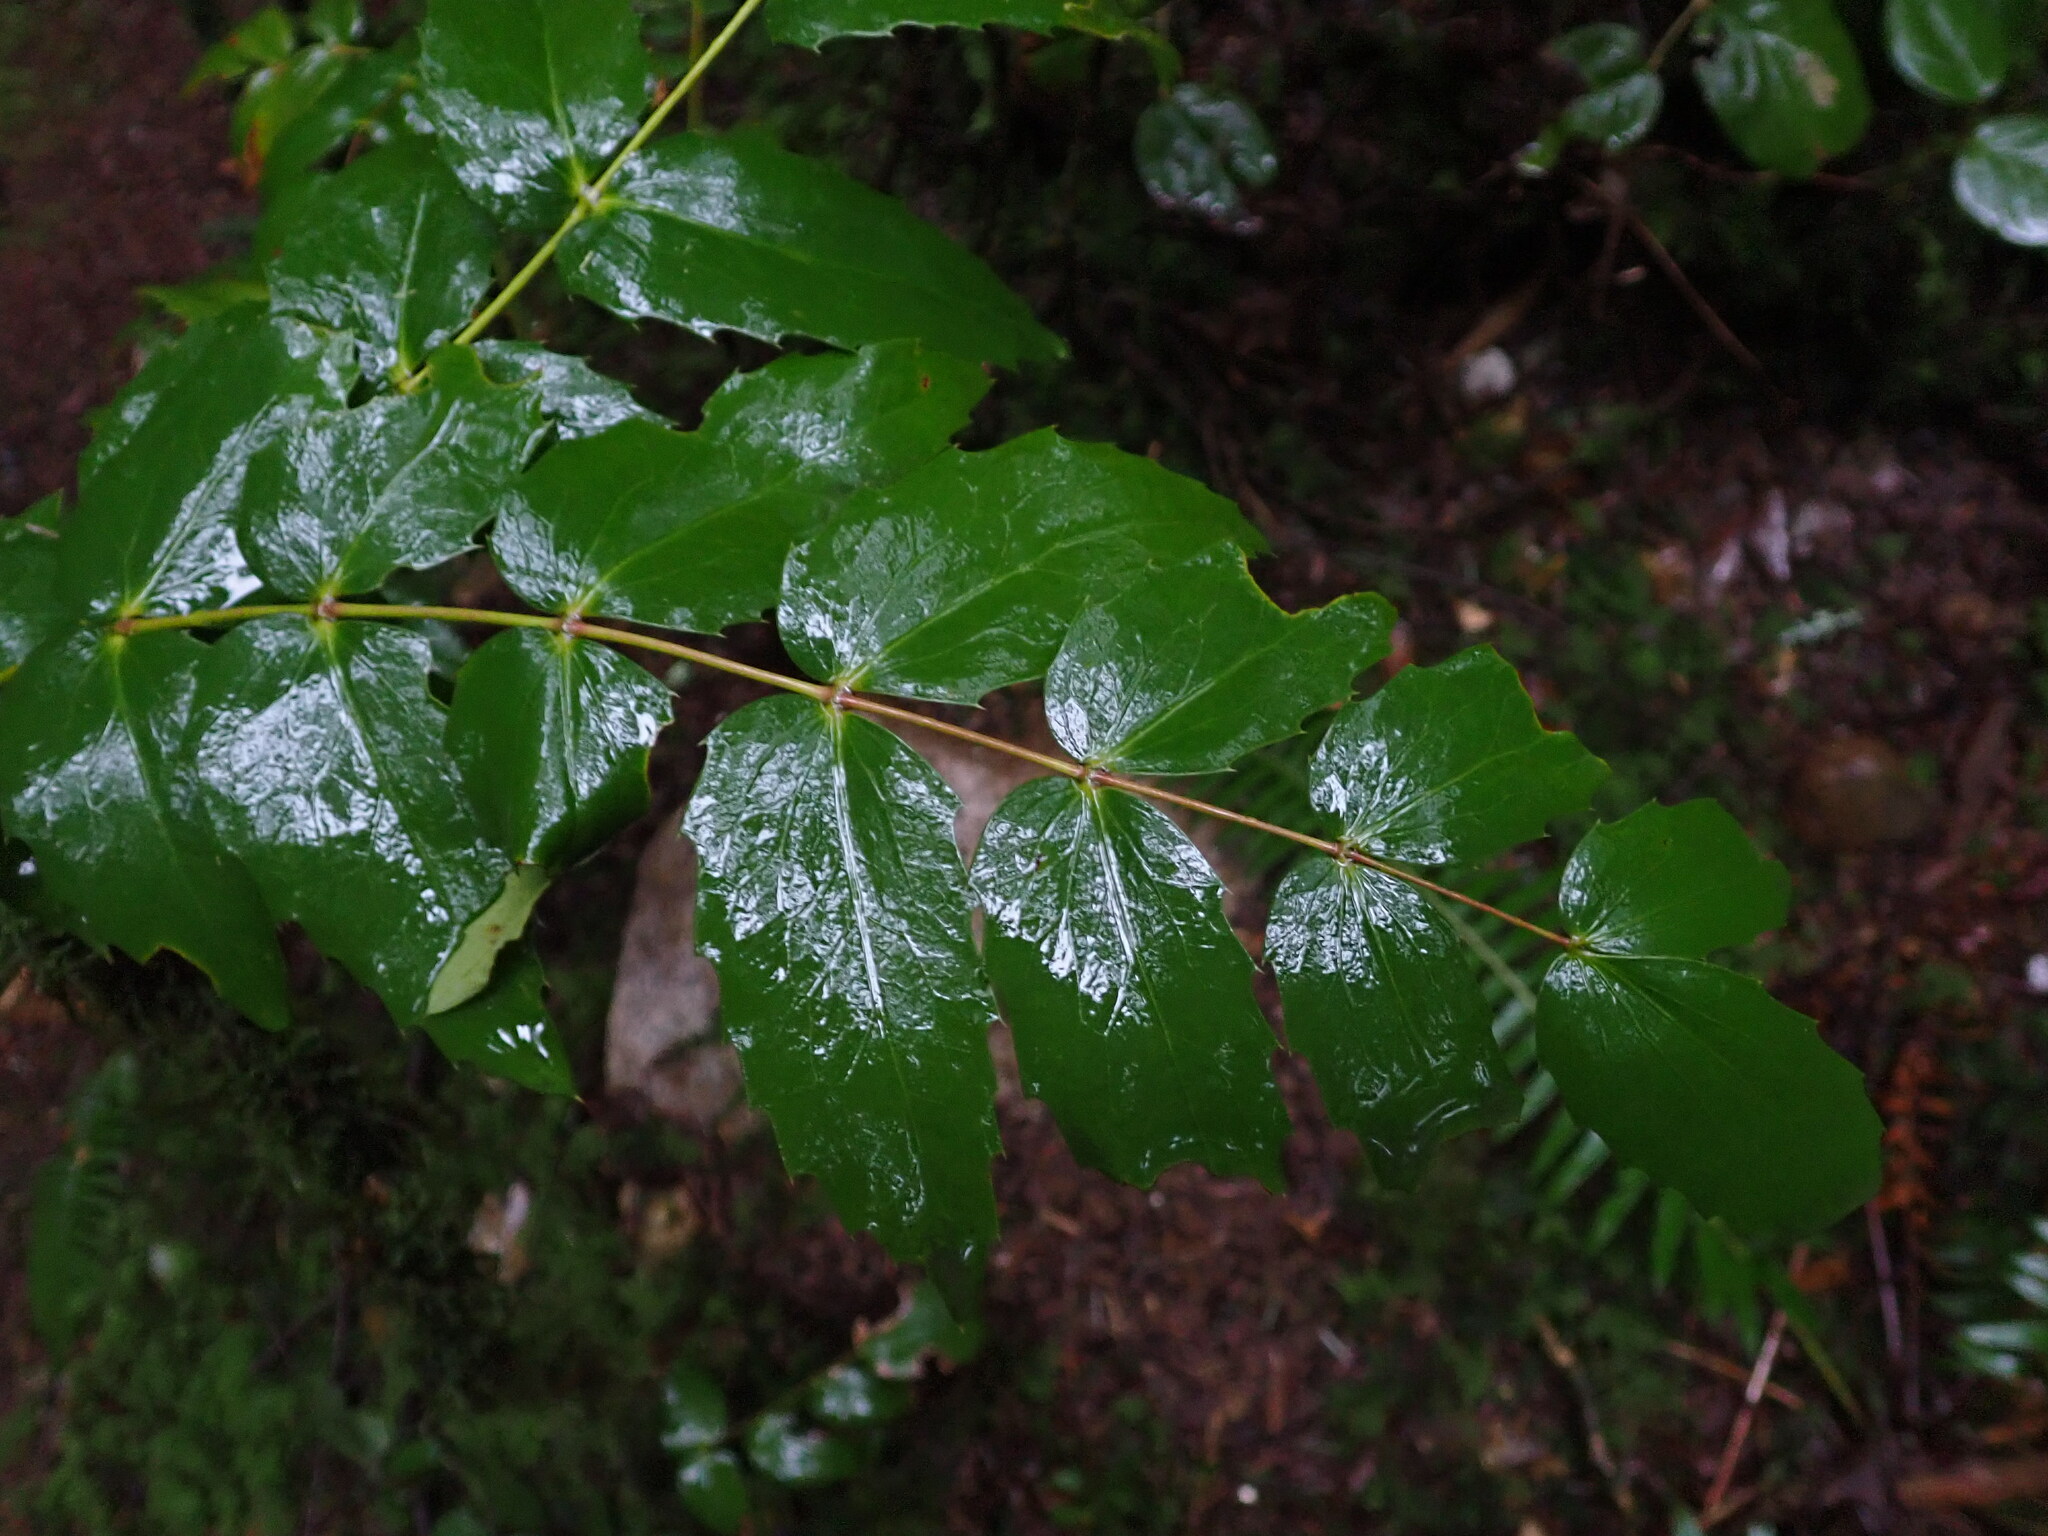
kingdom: Plantae
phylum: Tracheophyta
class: Magnoliopsida
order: Ranunculales
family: Berberidaceae
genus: Mahonia
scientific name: Mahonia nervosa
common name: Cascade oregon-grape
